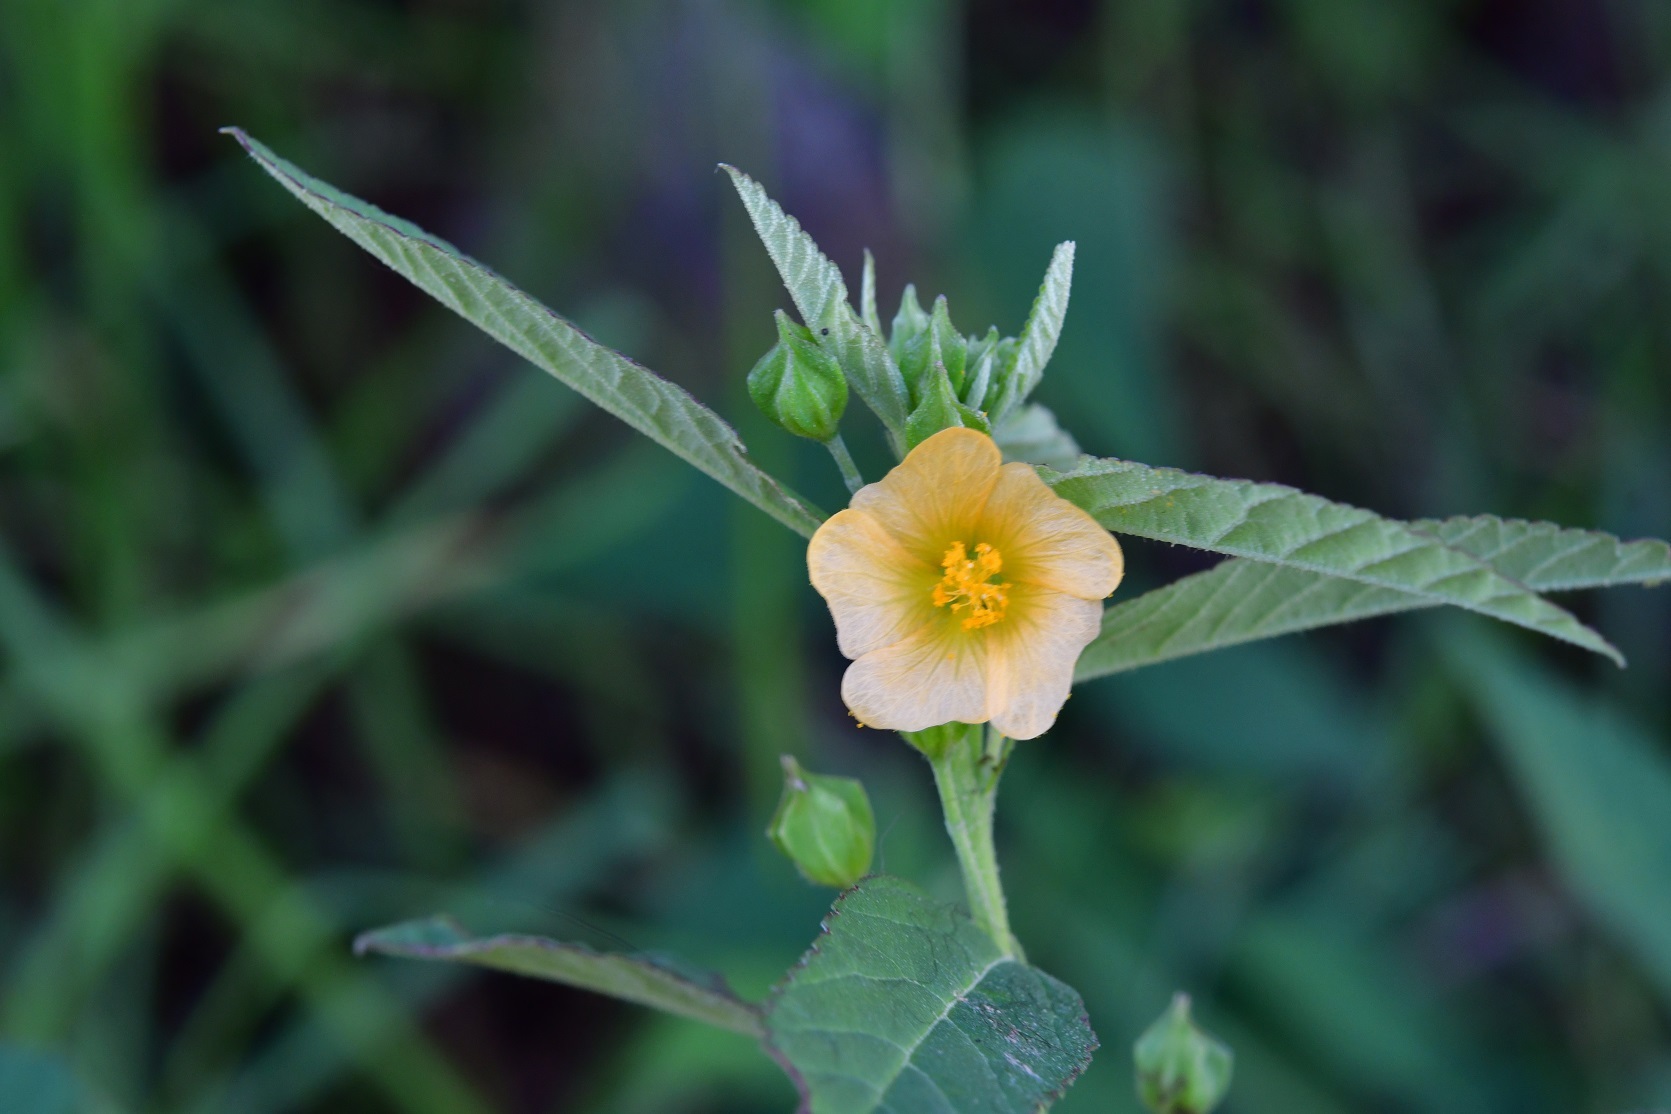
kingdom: Plantae
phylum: Tracheophyta
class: Magnoliopsida
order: Malvales
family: Malvaceae
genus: Sida
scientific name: Sida acuta
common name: Common wireweed
